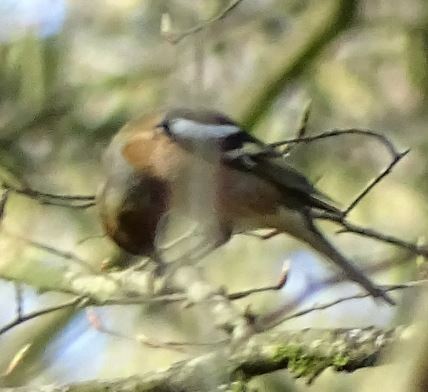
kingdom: Animalia
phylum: Chordata
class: Aves
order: Passeriformes
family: Fringillidae
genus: Fringilla
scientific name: Fringilla coelebs
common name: Common chaffinch
